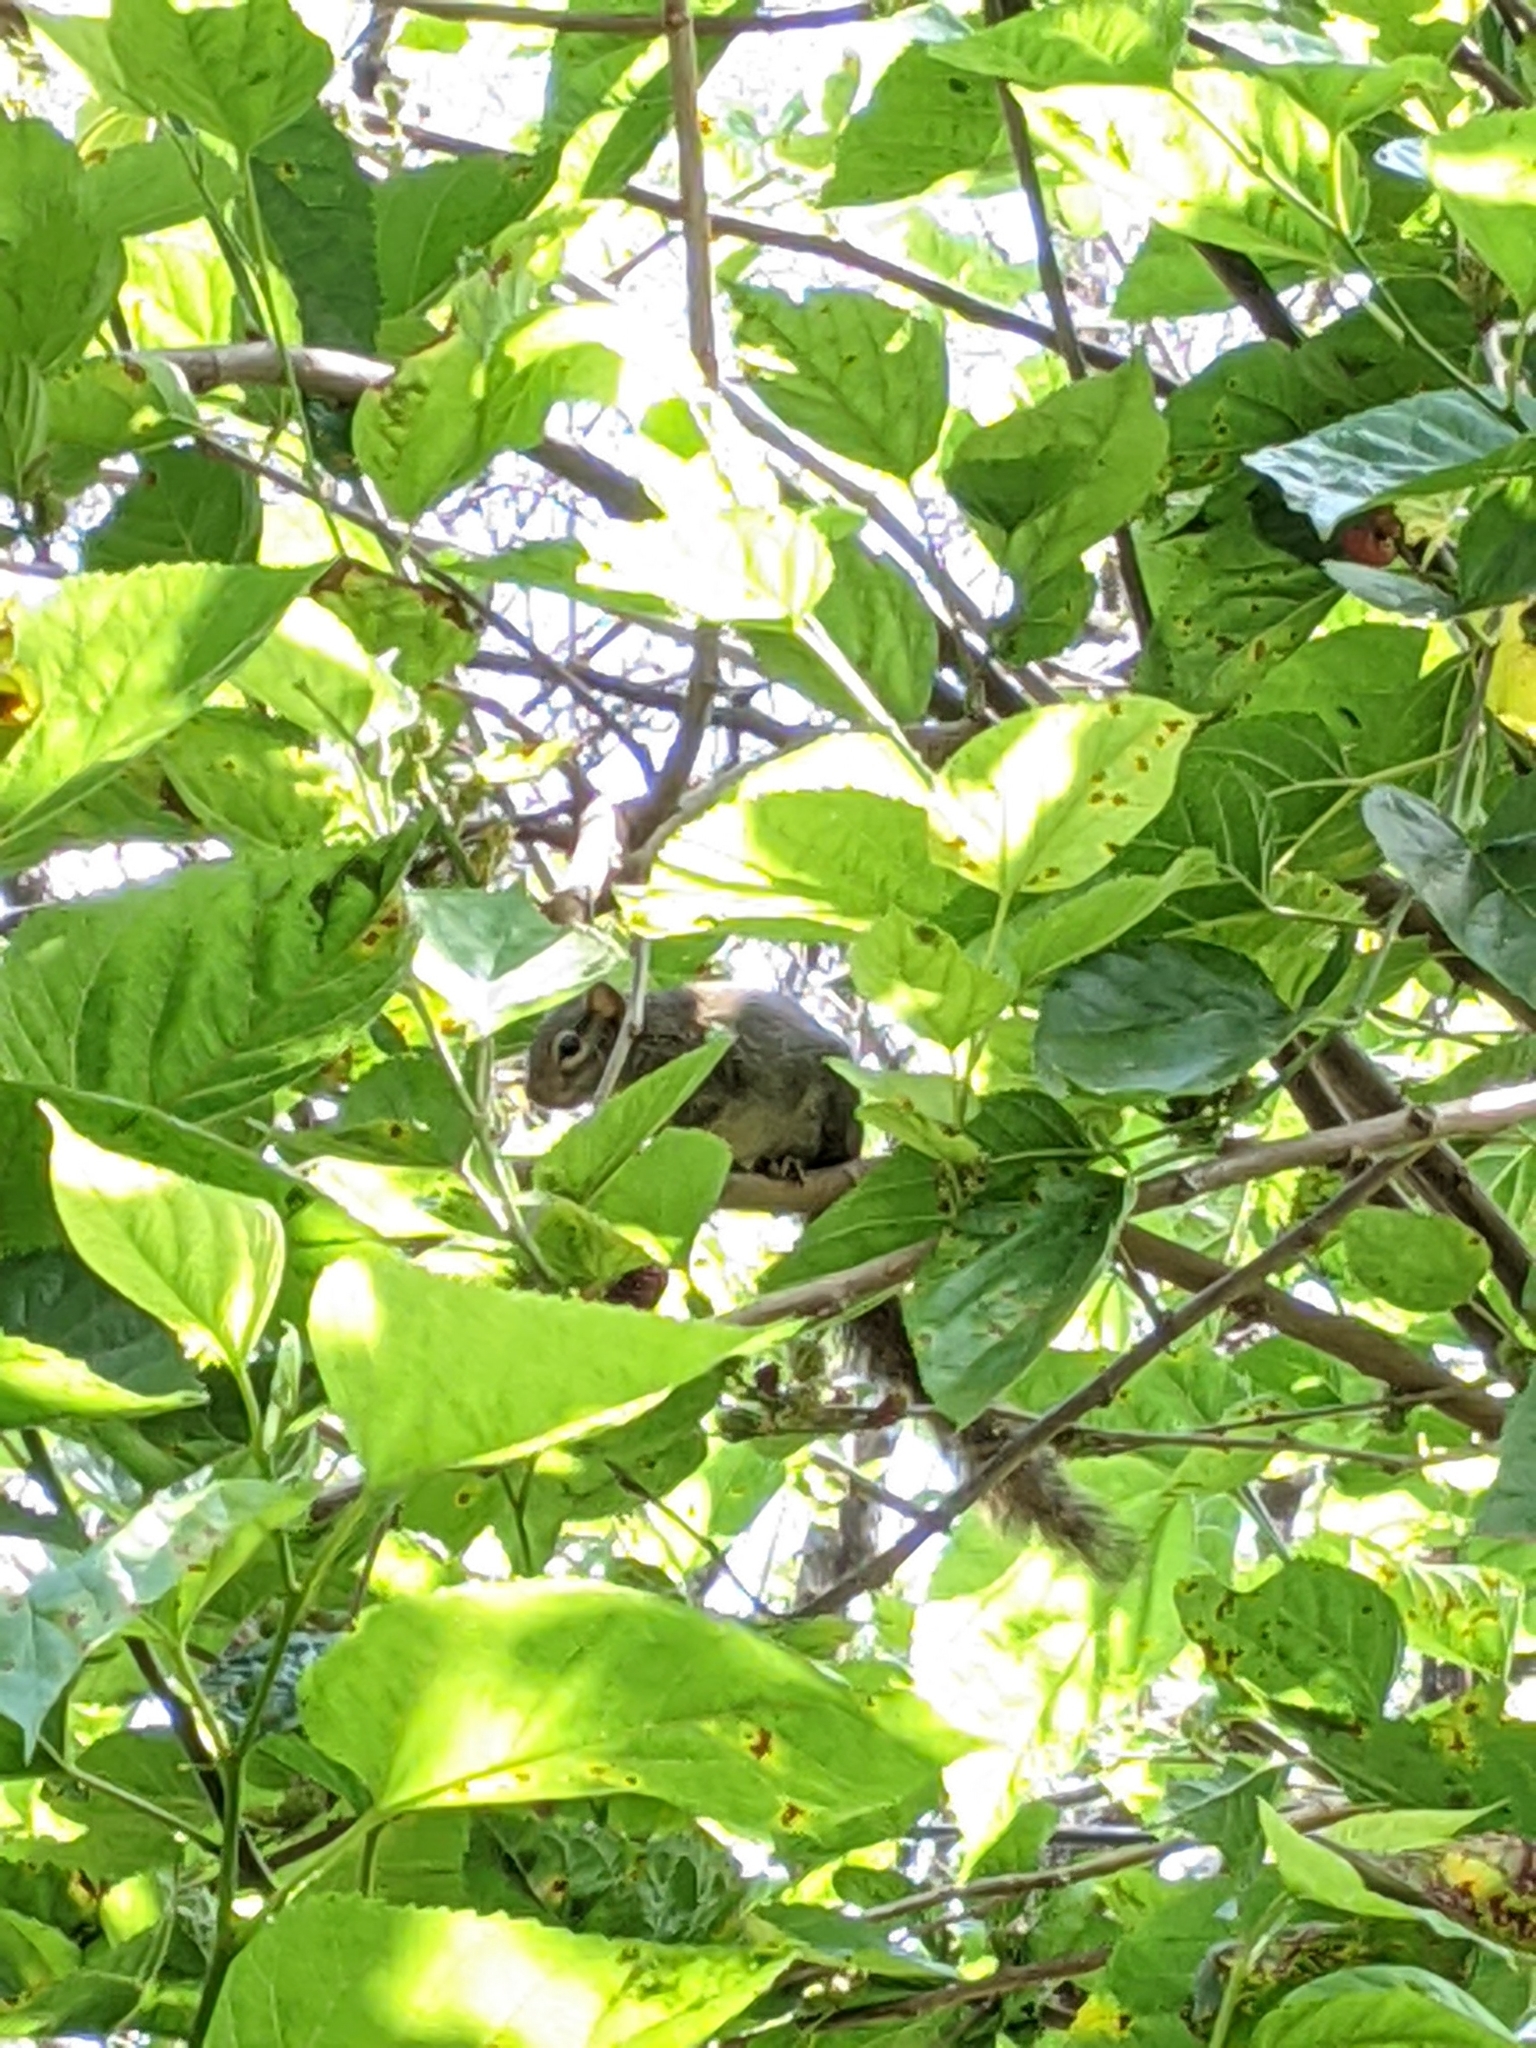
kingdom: Animalia
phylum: Chordata
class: Mammalia
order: Rodentia
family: Sciuridae
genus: Paraxerus
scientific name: Paraxerus ochraceus
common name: Ochre bush squirrel
